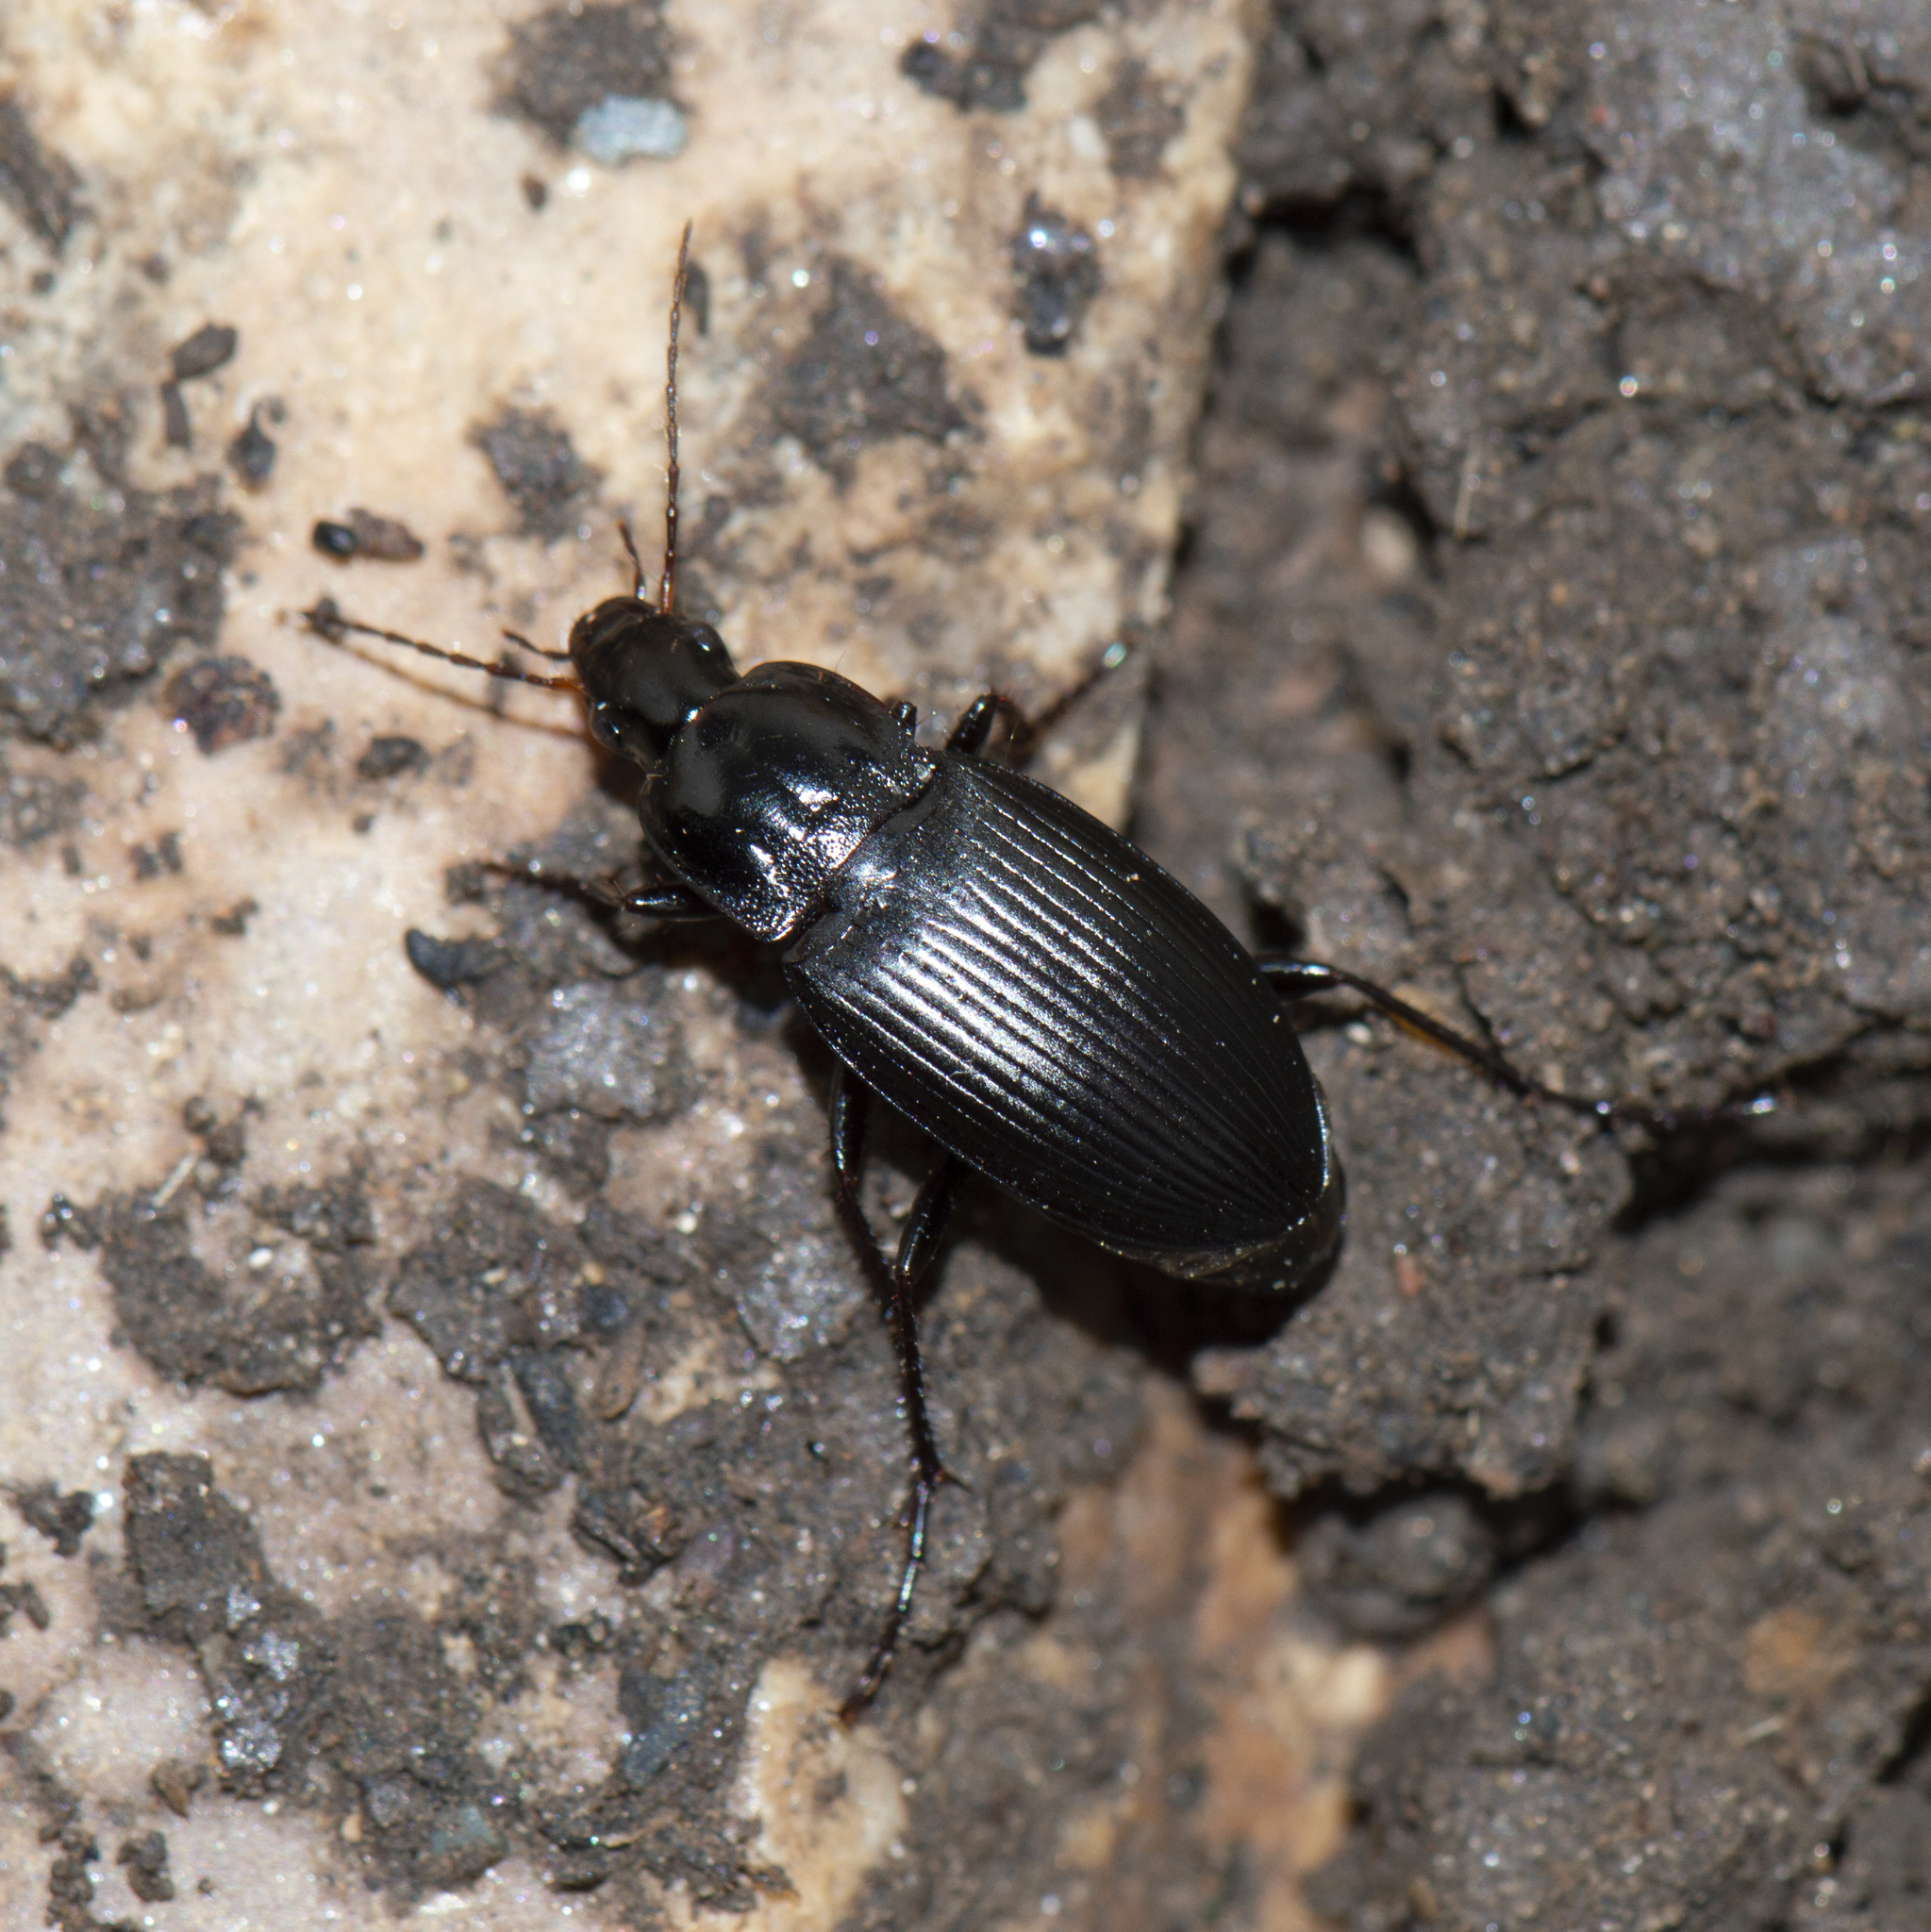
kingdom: Animalia
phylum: Arthropoda
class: Insecta
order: Coleoptera
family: Carabidae
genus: Calathus
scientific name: Calathus fuscipes
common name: Dark-footed harp ground beetle
